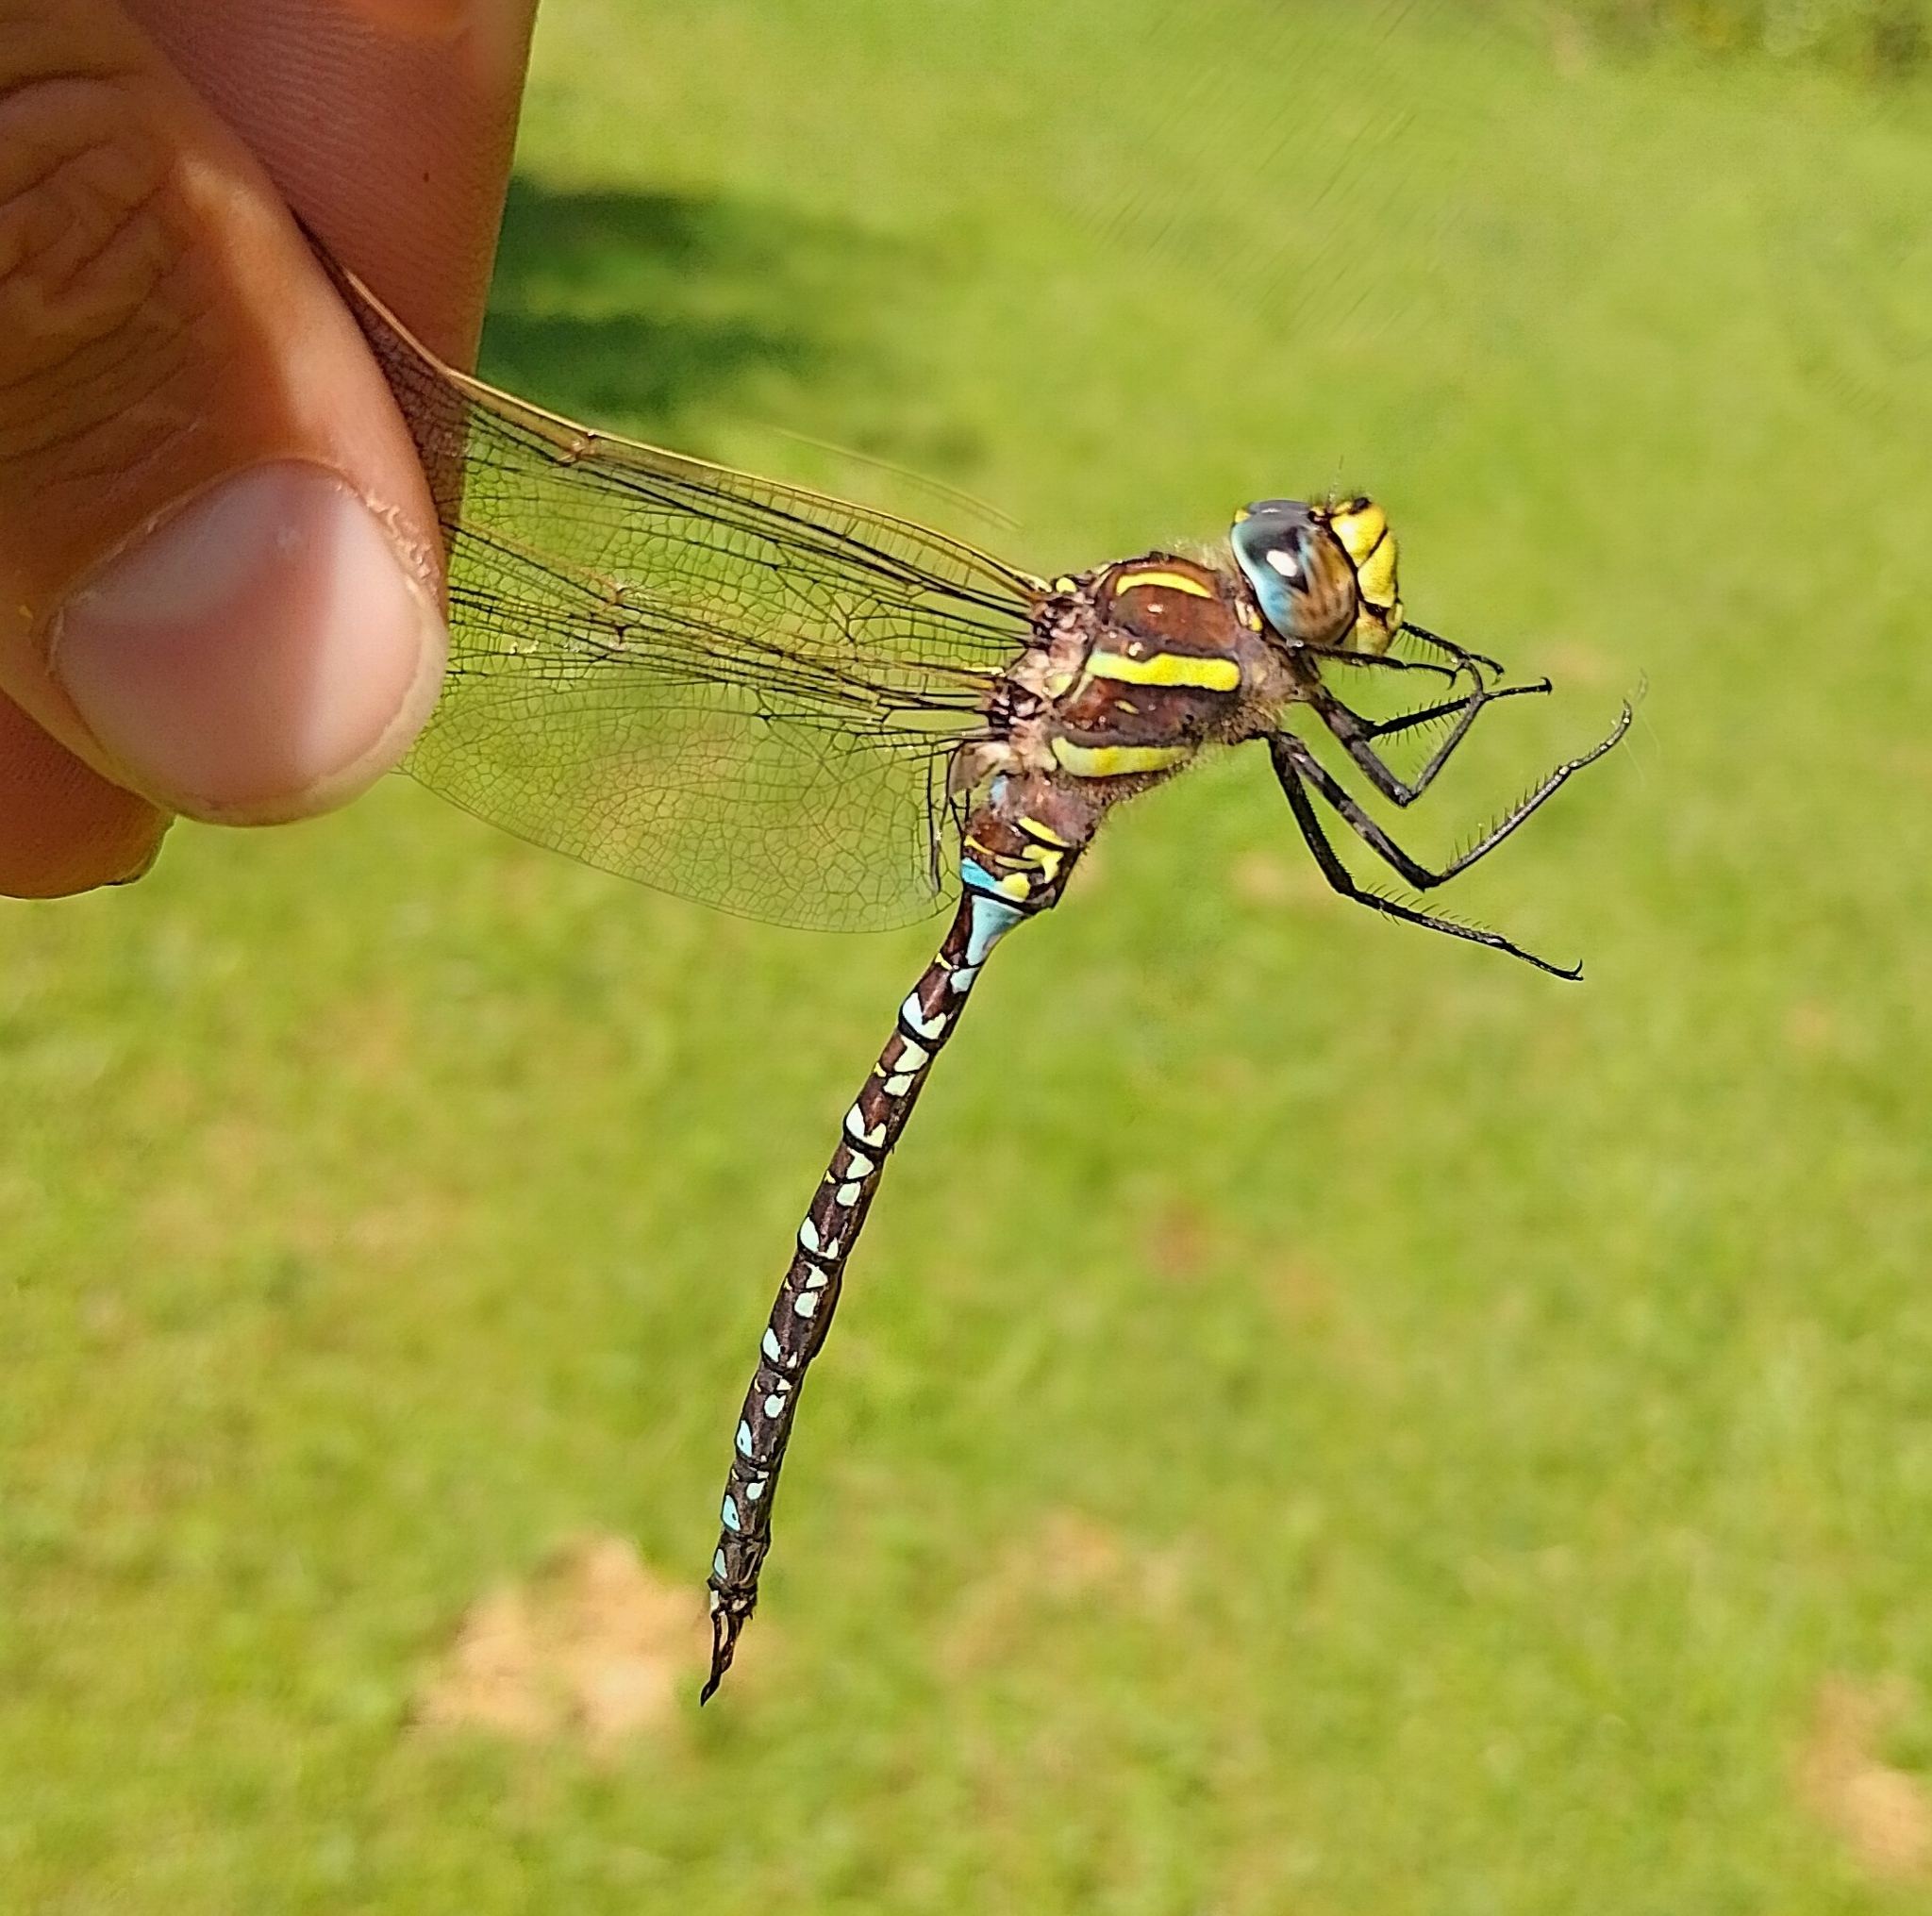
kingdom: Animalia
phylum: Arthropoda
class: Insecta
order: Odonata
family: Aeshnidae
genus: Aeshna
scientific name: Aeshna juncea
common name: Moorland hawker
